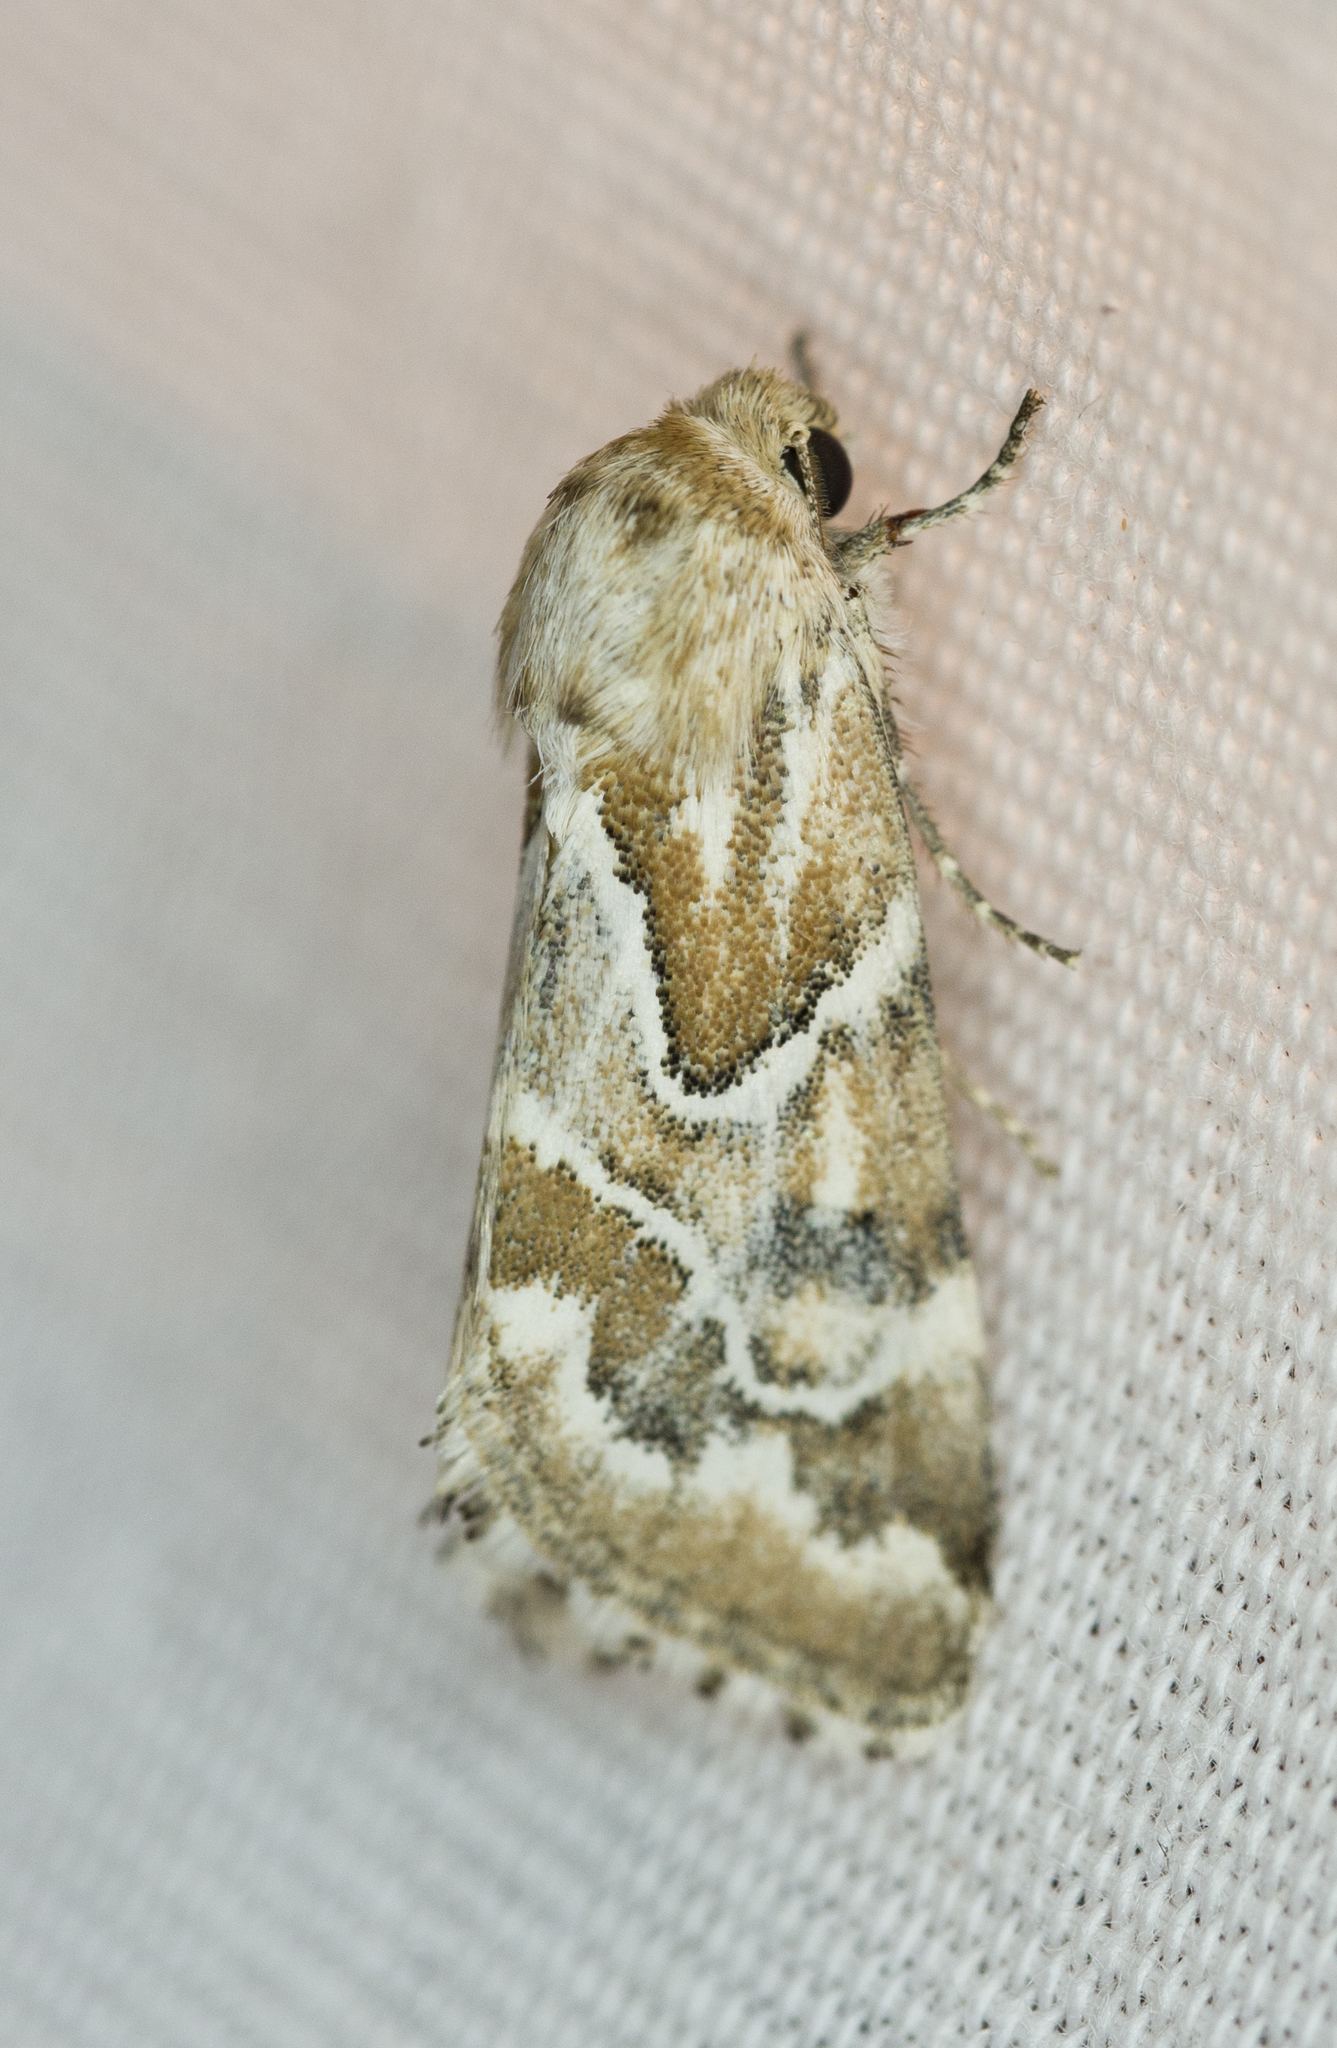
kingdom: Animalia
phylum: Arthropoda
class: Insecta
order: Lepidoptera
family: Noctuidae
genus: Schinia
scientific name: Schinia acutilinea
